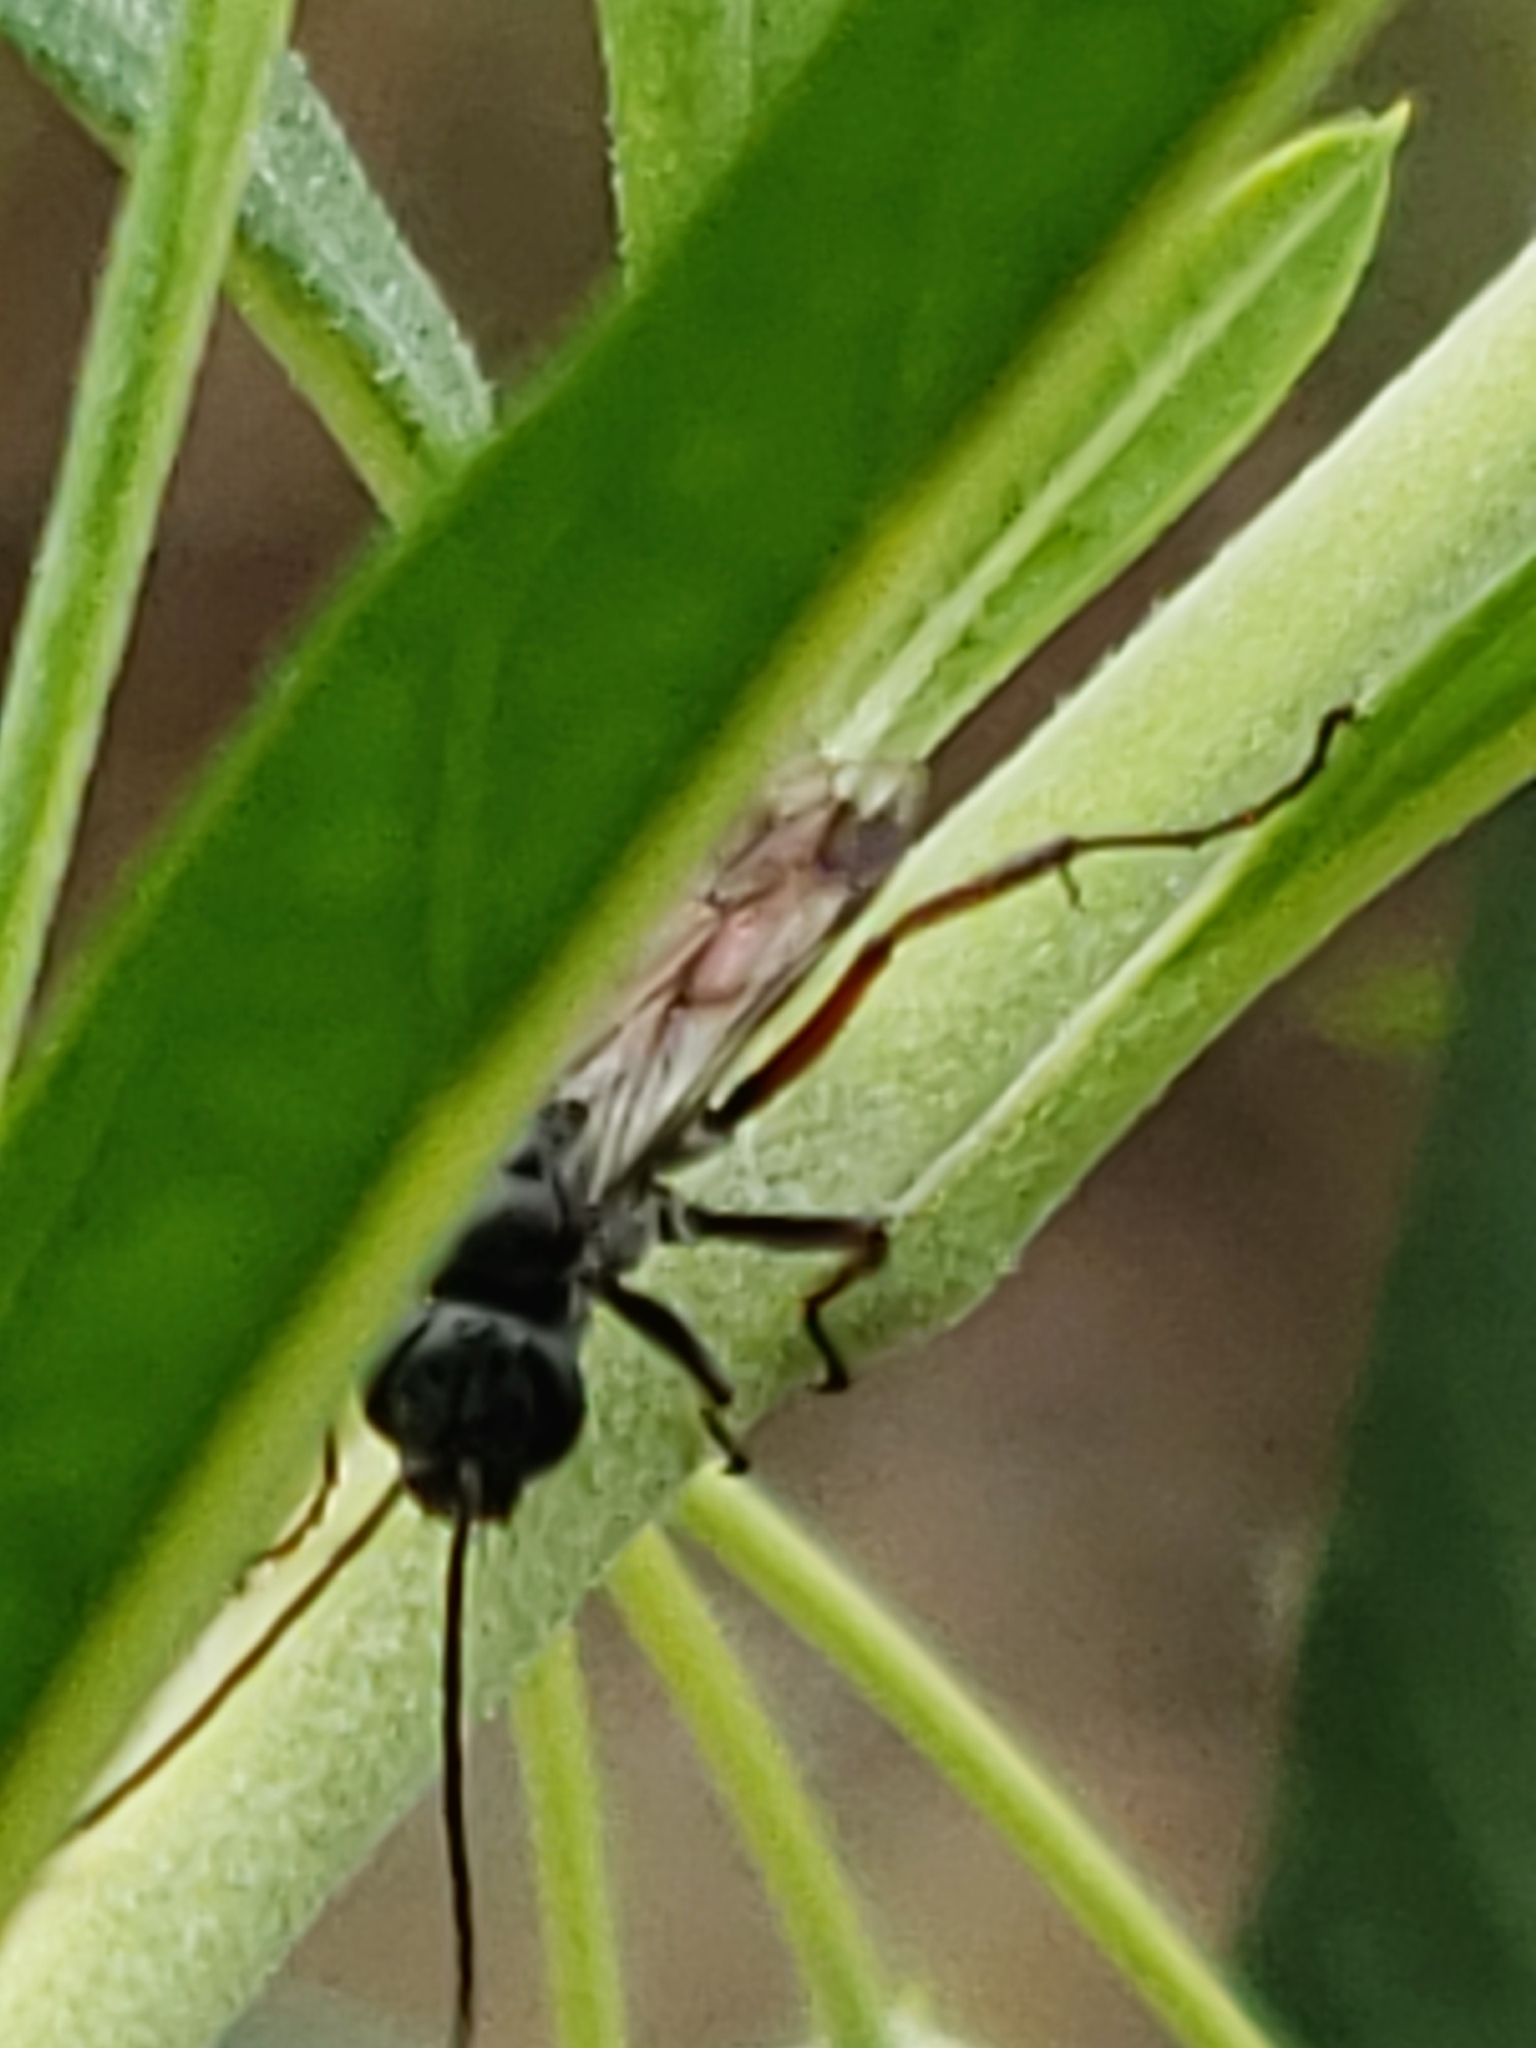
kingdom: Animalia
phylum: Arthropoda
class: Insecta
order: Hymenoptera
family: Pompilidae
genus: Caliadurgus
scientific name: Caliadurgus fasciatellus
